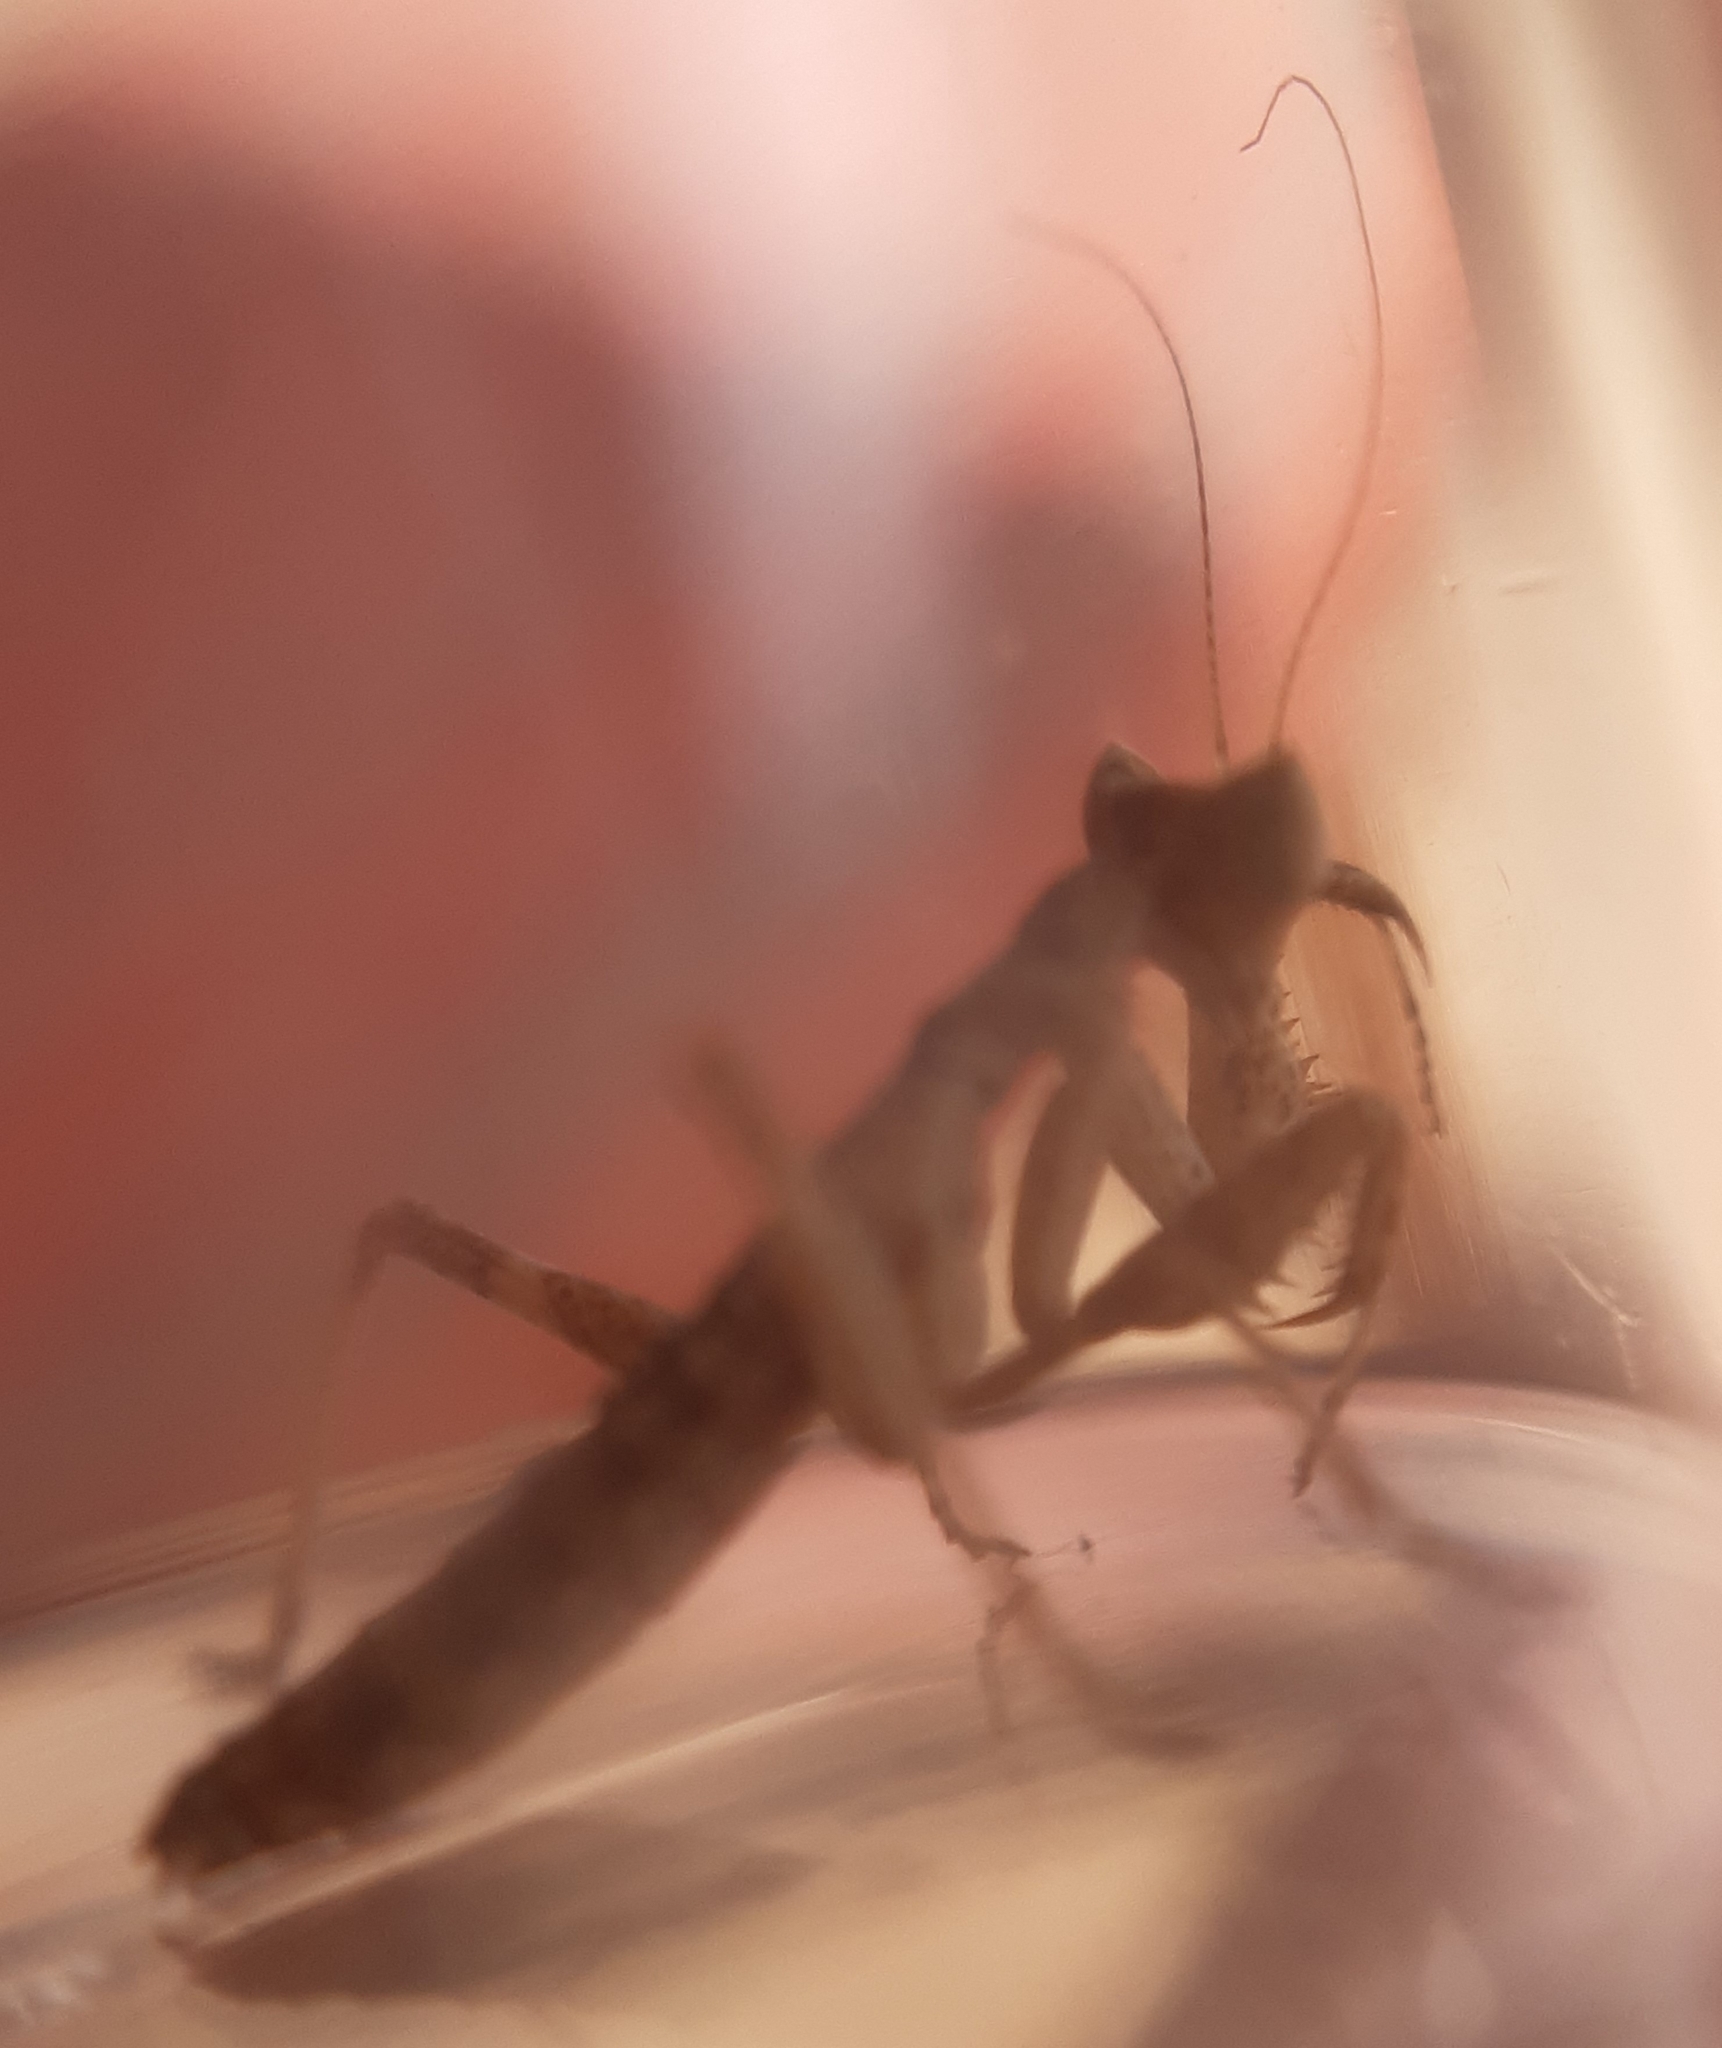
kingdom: Animalia
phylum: Arthropoda
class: Insecta
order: Mantodea
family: Amelidae
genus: Ameles
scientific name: Ameles spallanzania
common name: European dwarf mantis
